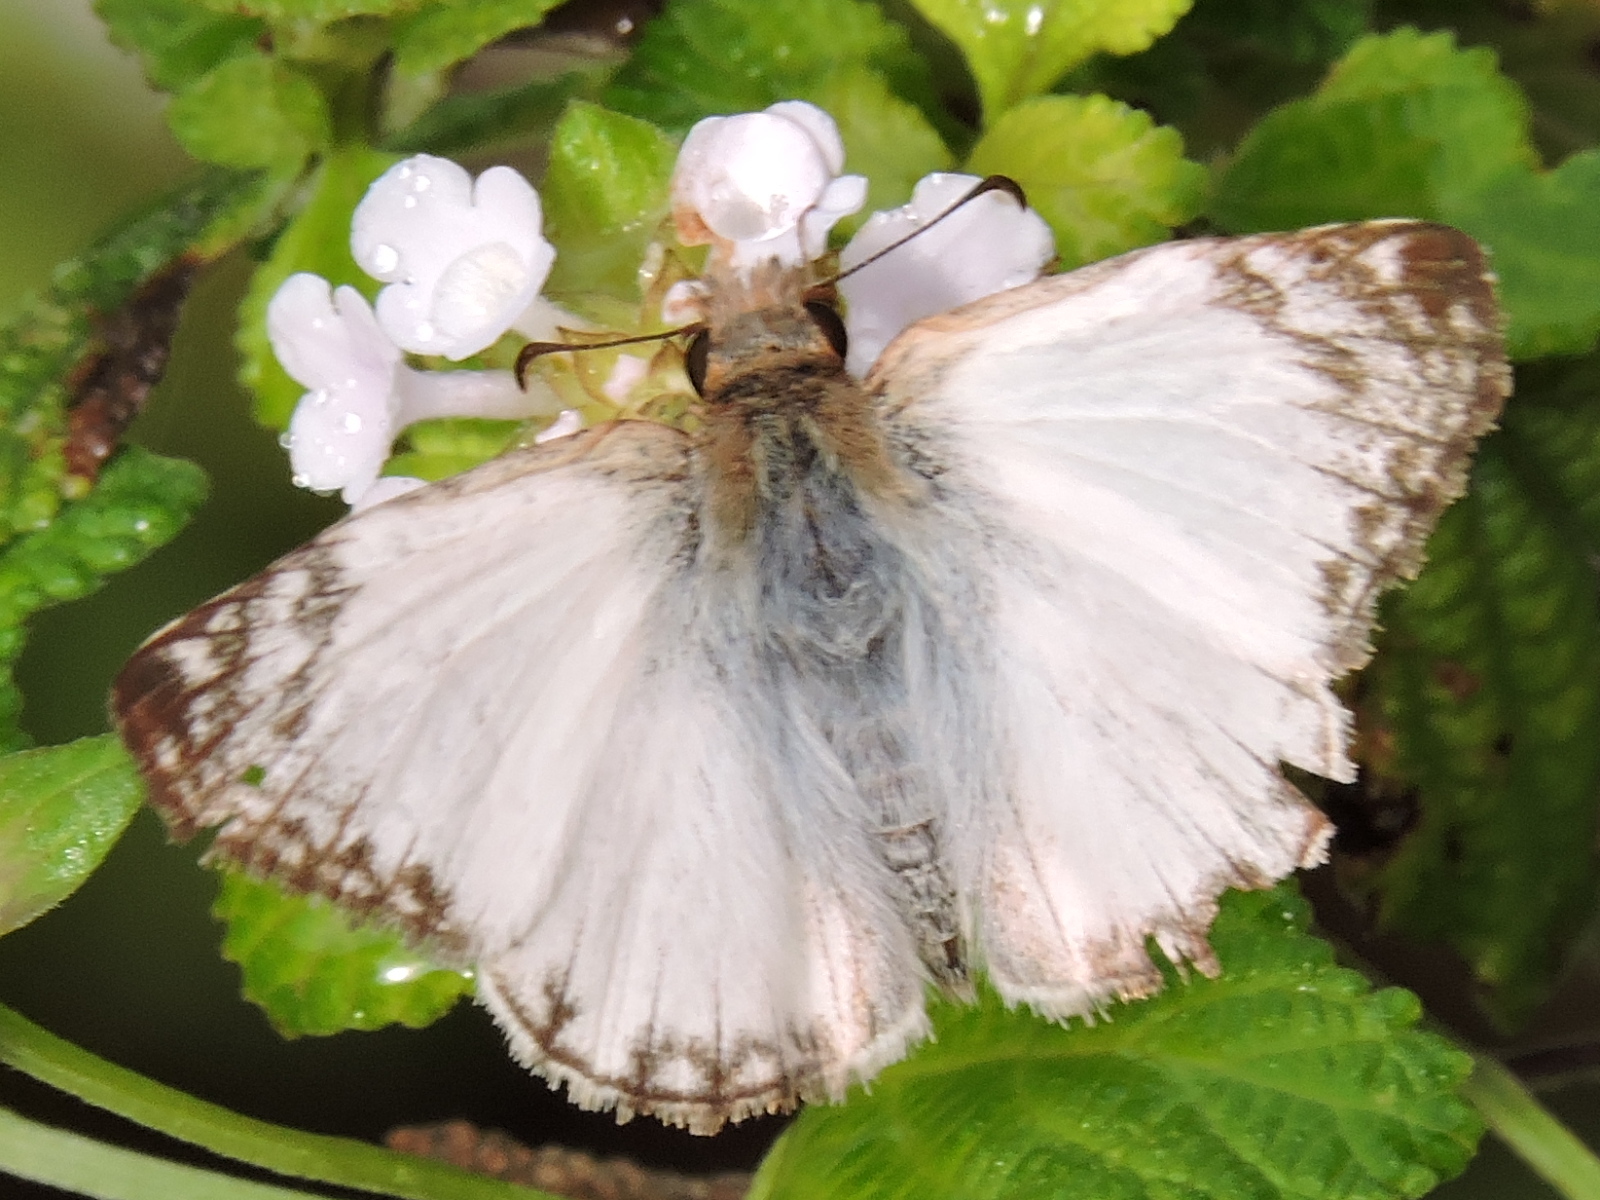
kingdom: Animalia
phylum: Arthropoda
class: Insecta
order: Lepidoptera
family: Hesperiidae
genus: Heliopetes
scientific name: Heliopetes laviana
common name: Laviana white-skipper
